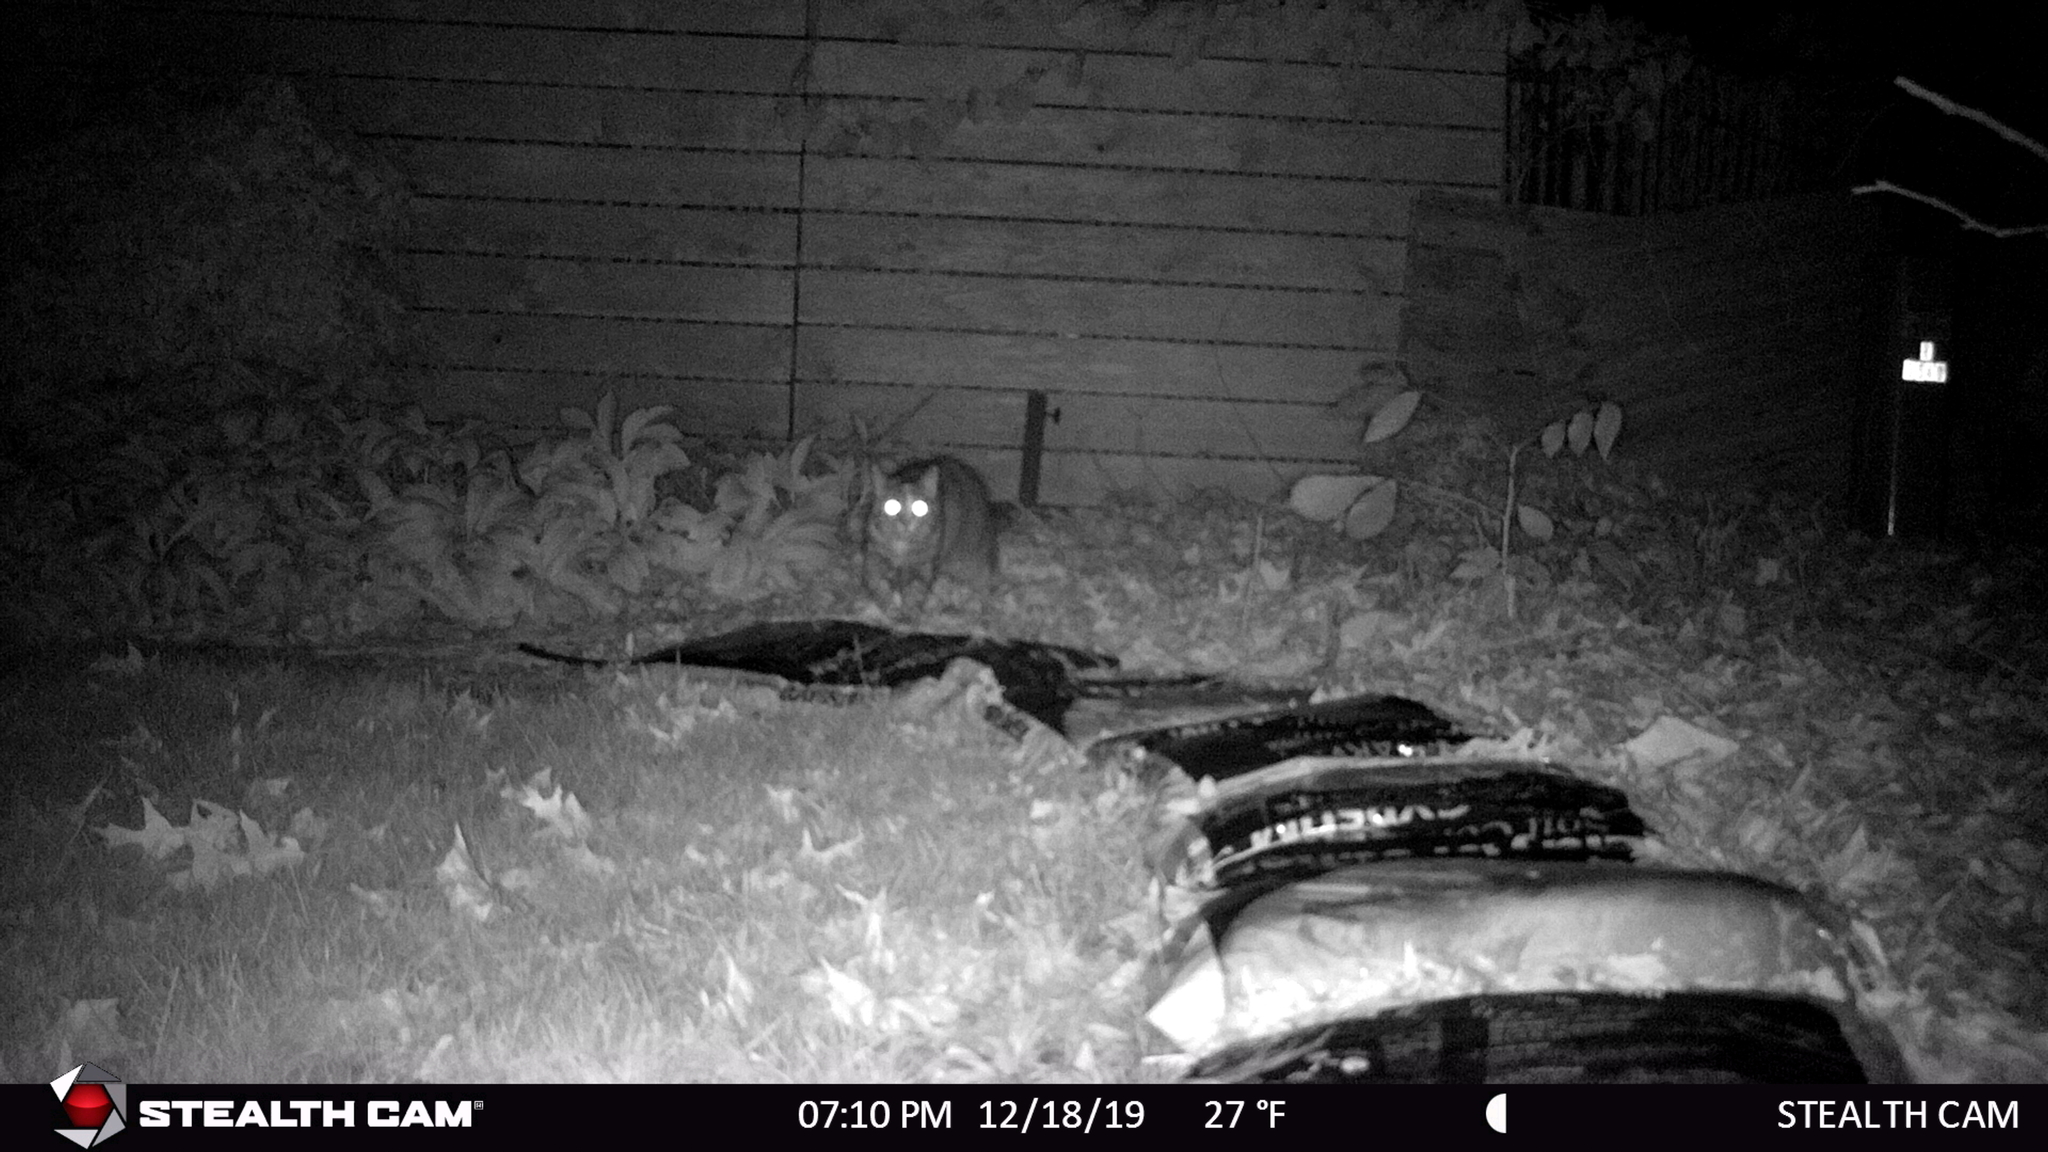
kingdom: Animalia
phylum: Chordata
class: Mammalia
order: Carnivora
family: Felidae
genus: Felis
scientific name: Felis catus
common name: Domestic cat
